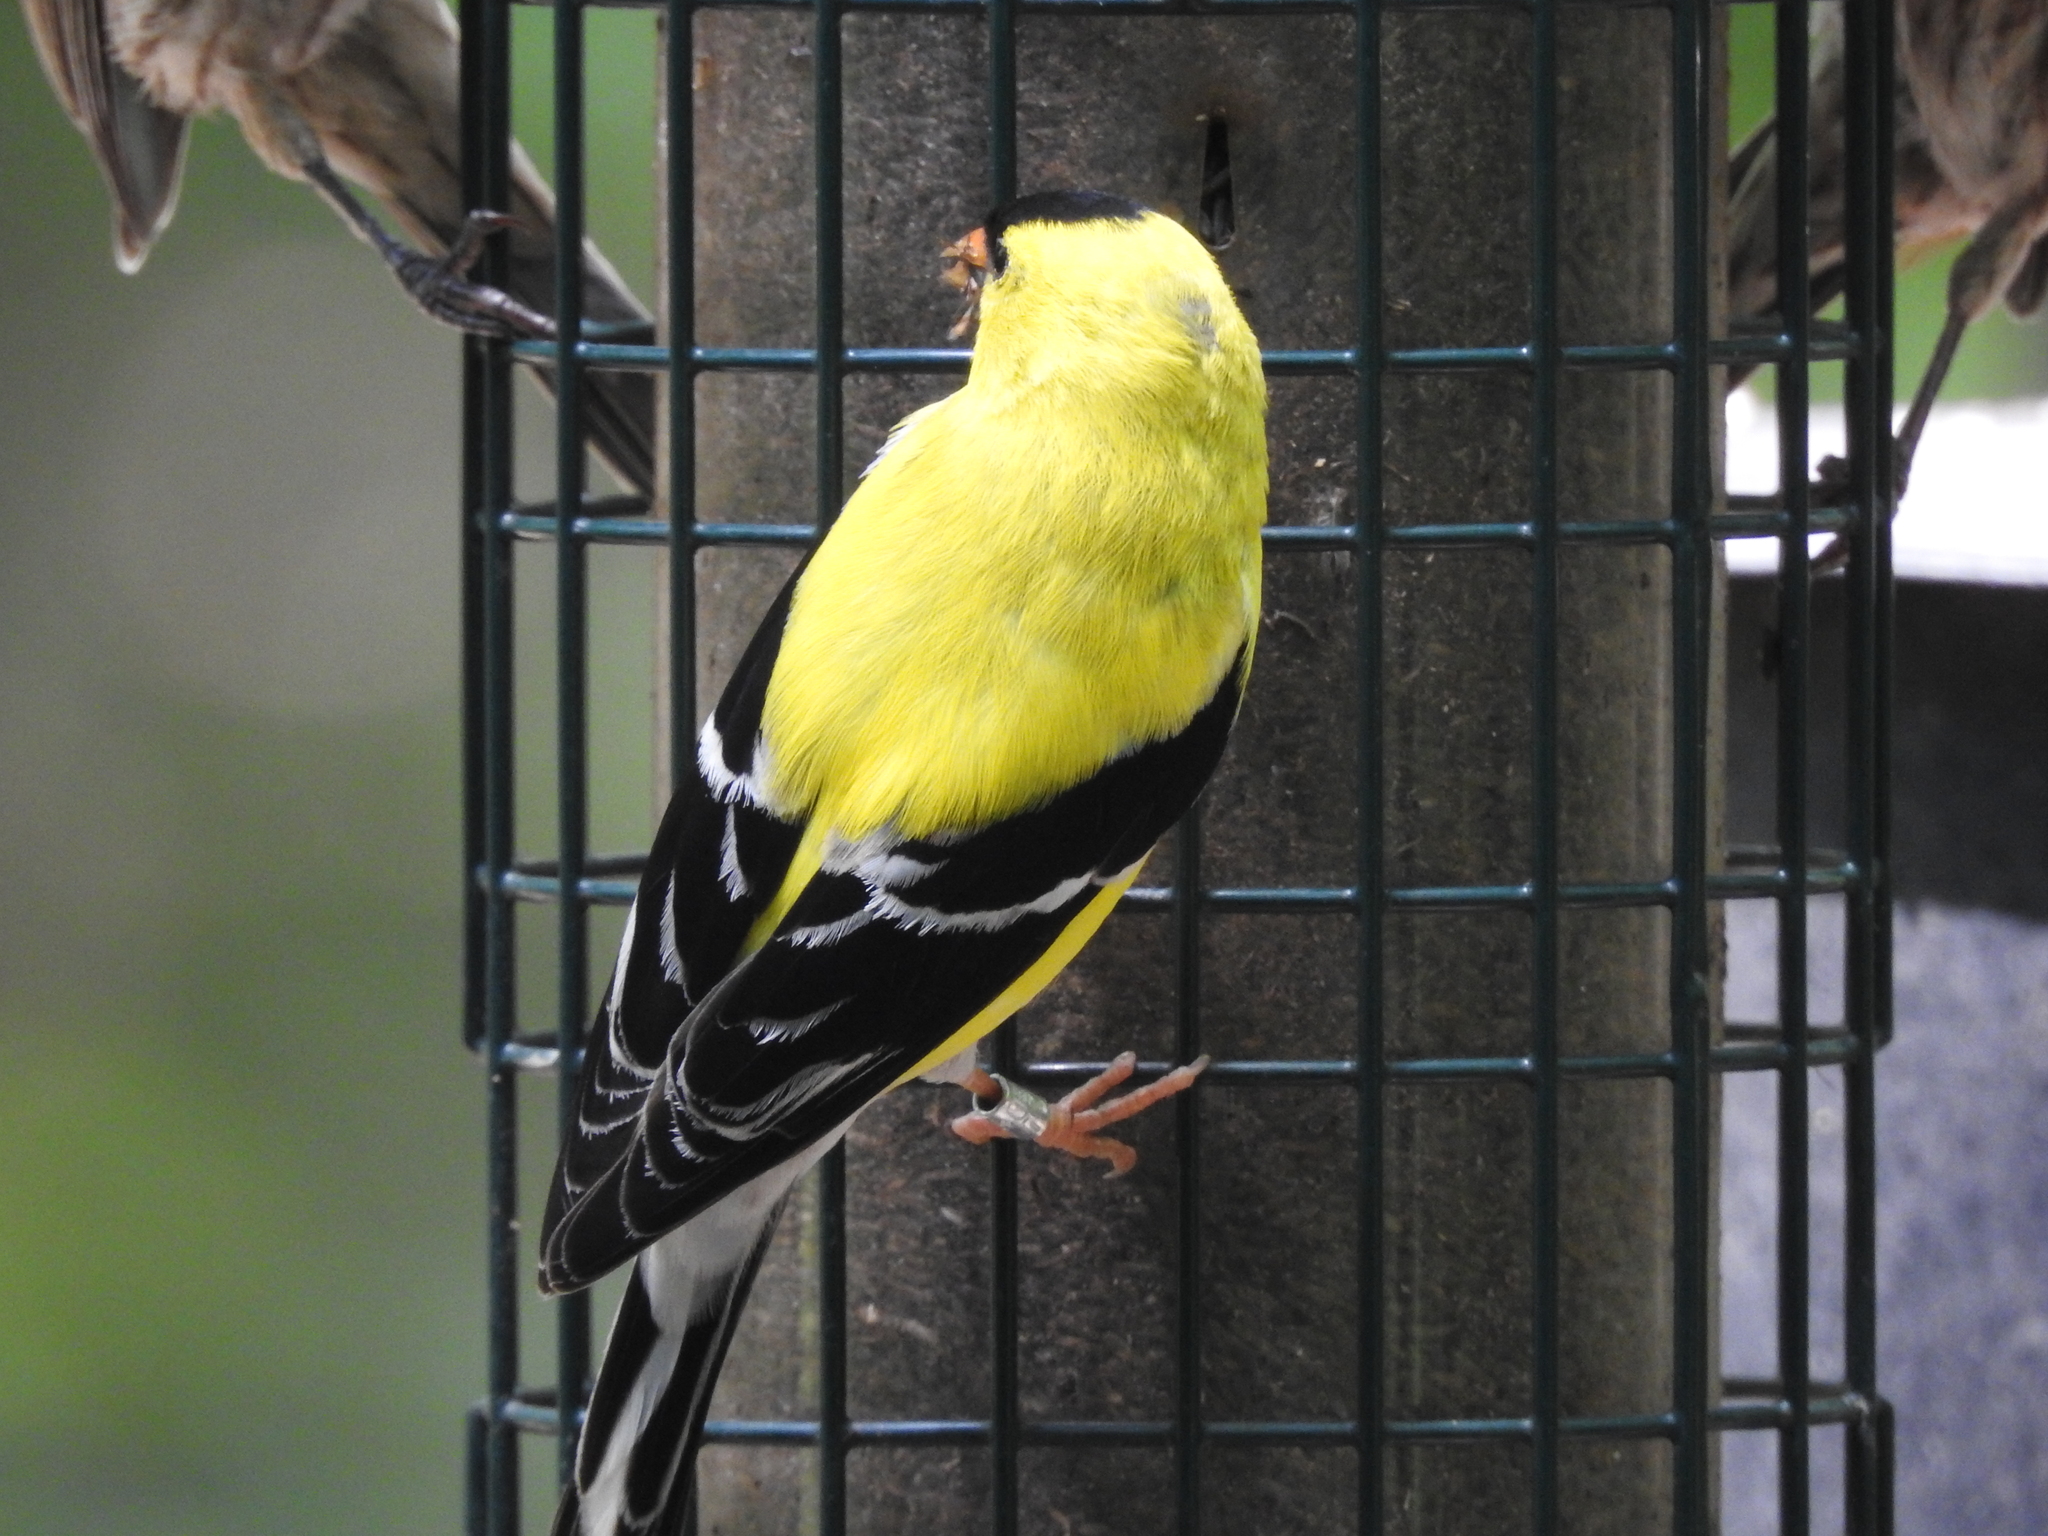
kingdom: Animalia
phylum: Chordata
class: Aves
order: Passeriformes
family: Fringillidae
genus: Spinus
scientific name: Spinus tristis
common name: American goldfinch
